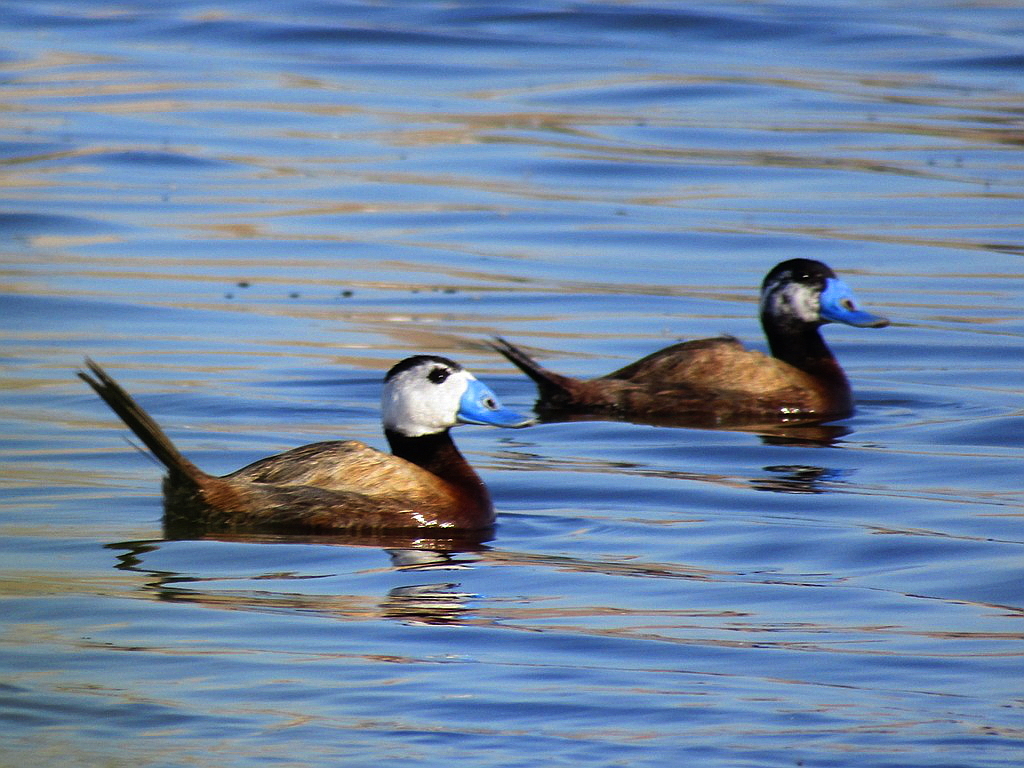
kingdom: Animalia
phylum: Chordata
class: Aves
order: Anseriformes
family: Anatidae
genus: Oxyura
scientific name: Oxyura leucocephala
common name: White-headed duck
